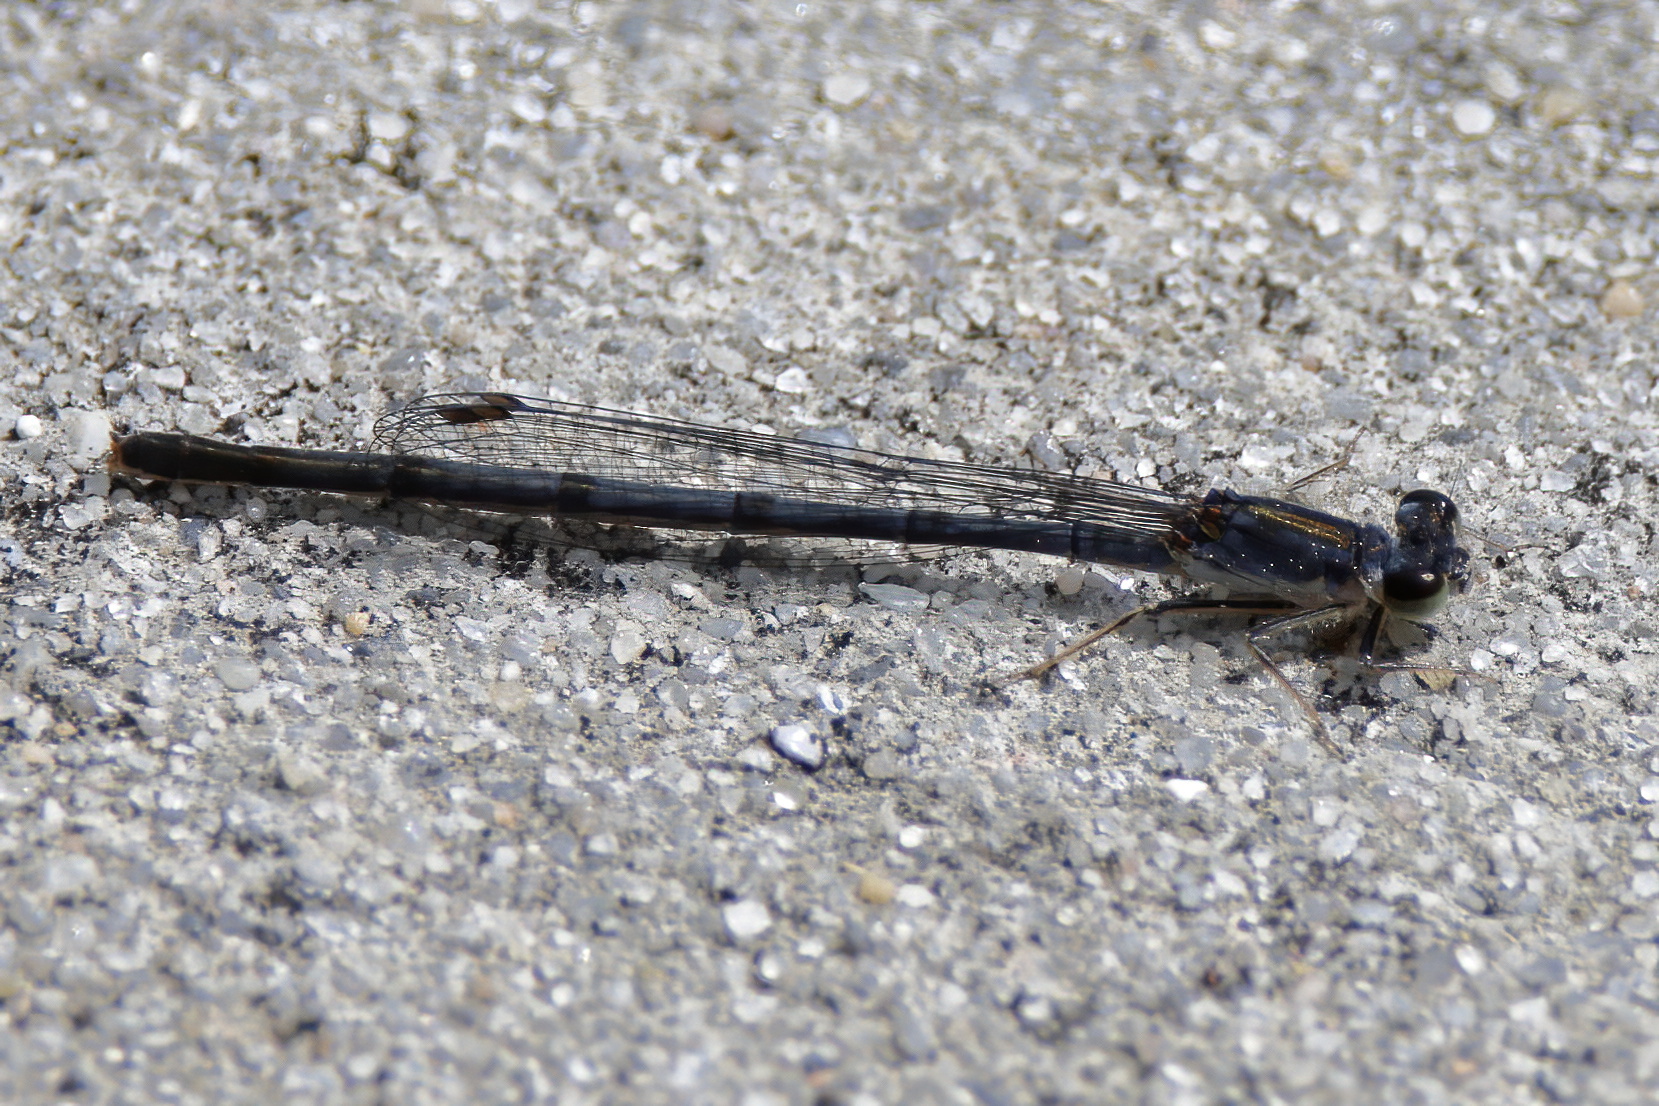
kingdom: Animalia
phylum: Arthropoda
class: Insecta
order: Odonata
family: Coenagrionidae
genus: Ischnura
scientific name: Ischnura posita
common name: Fragile forktail
